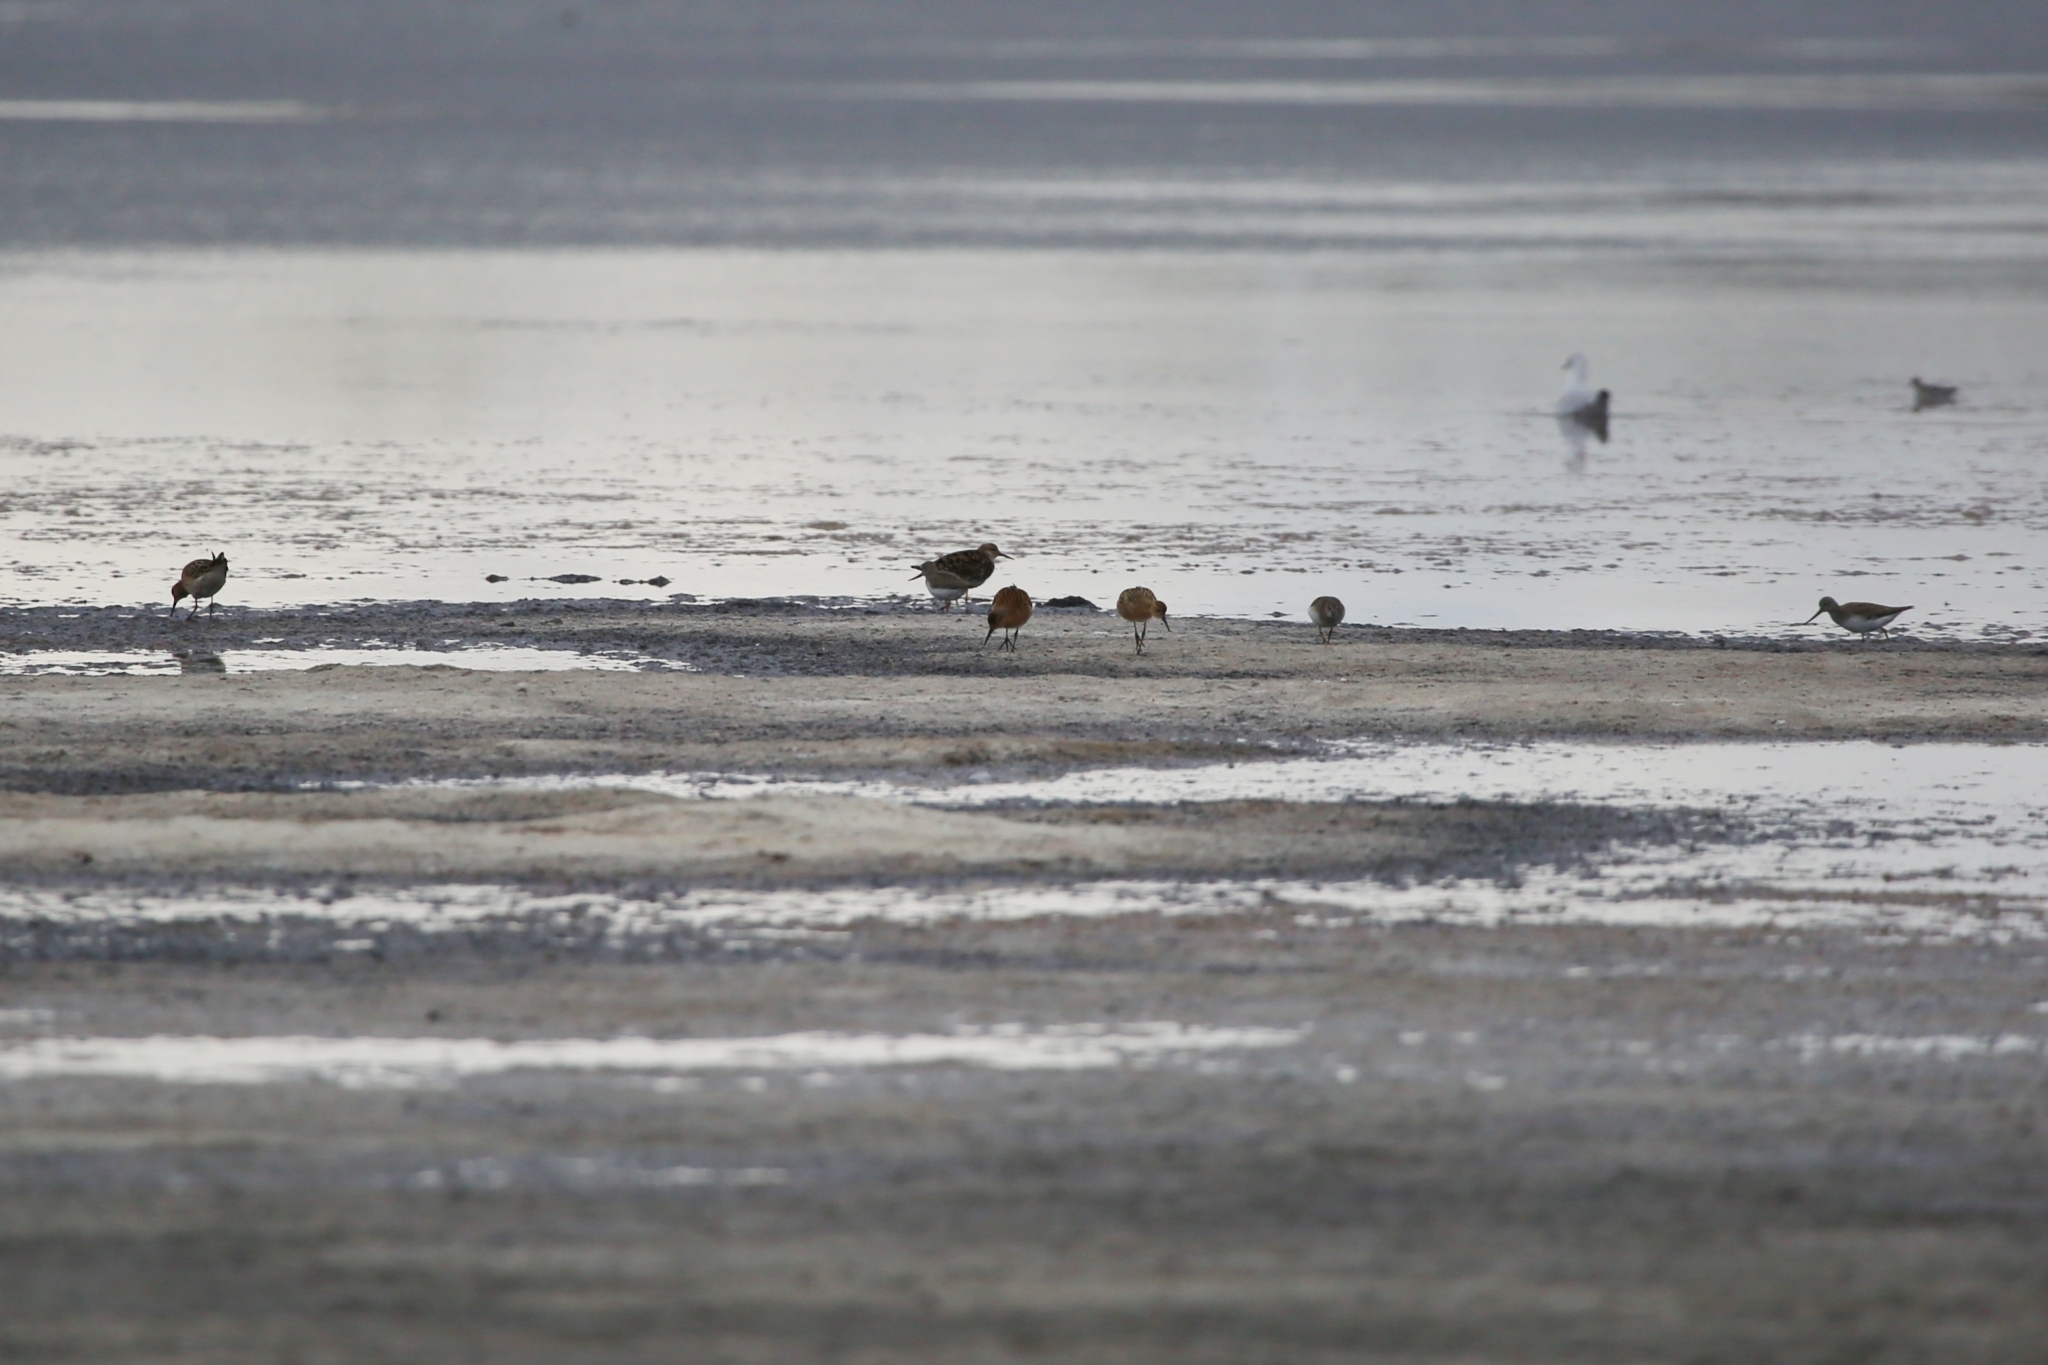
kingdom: Animalia
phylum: Chordata
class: Aves
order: Charadriiformes
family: Scolopacidae
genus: Calidris
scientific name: Calidris pugnax
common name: Ruff
